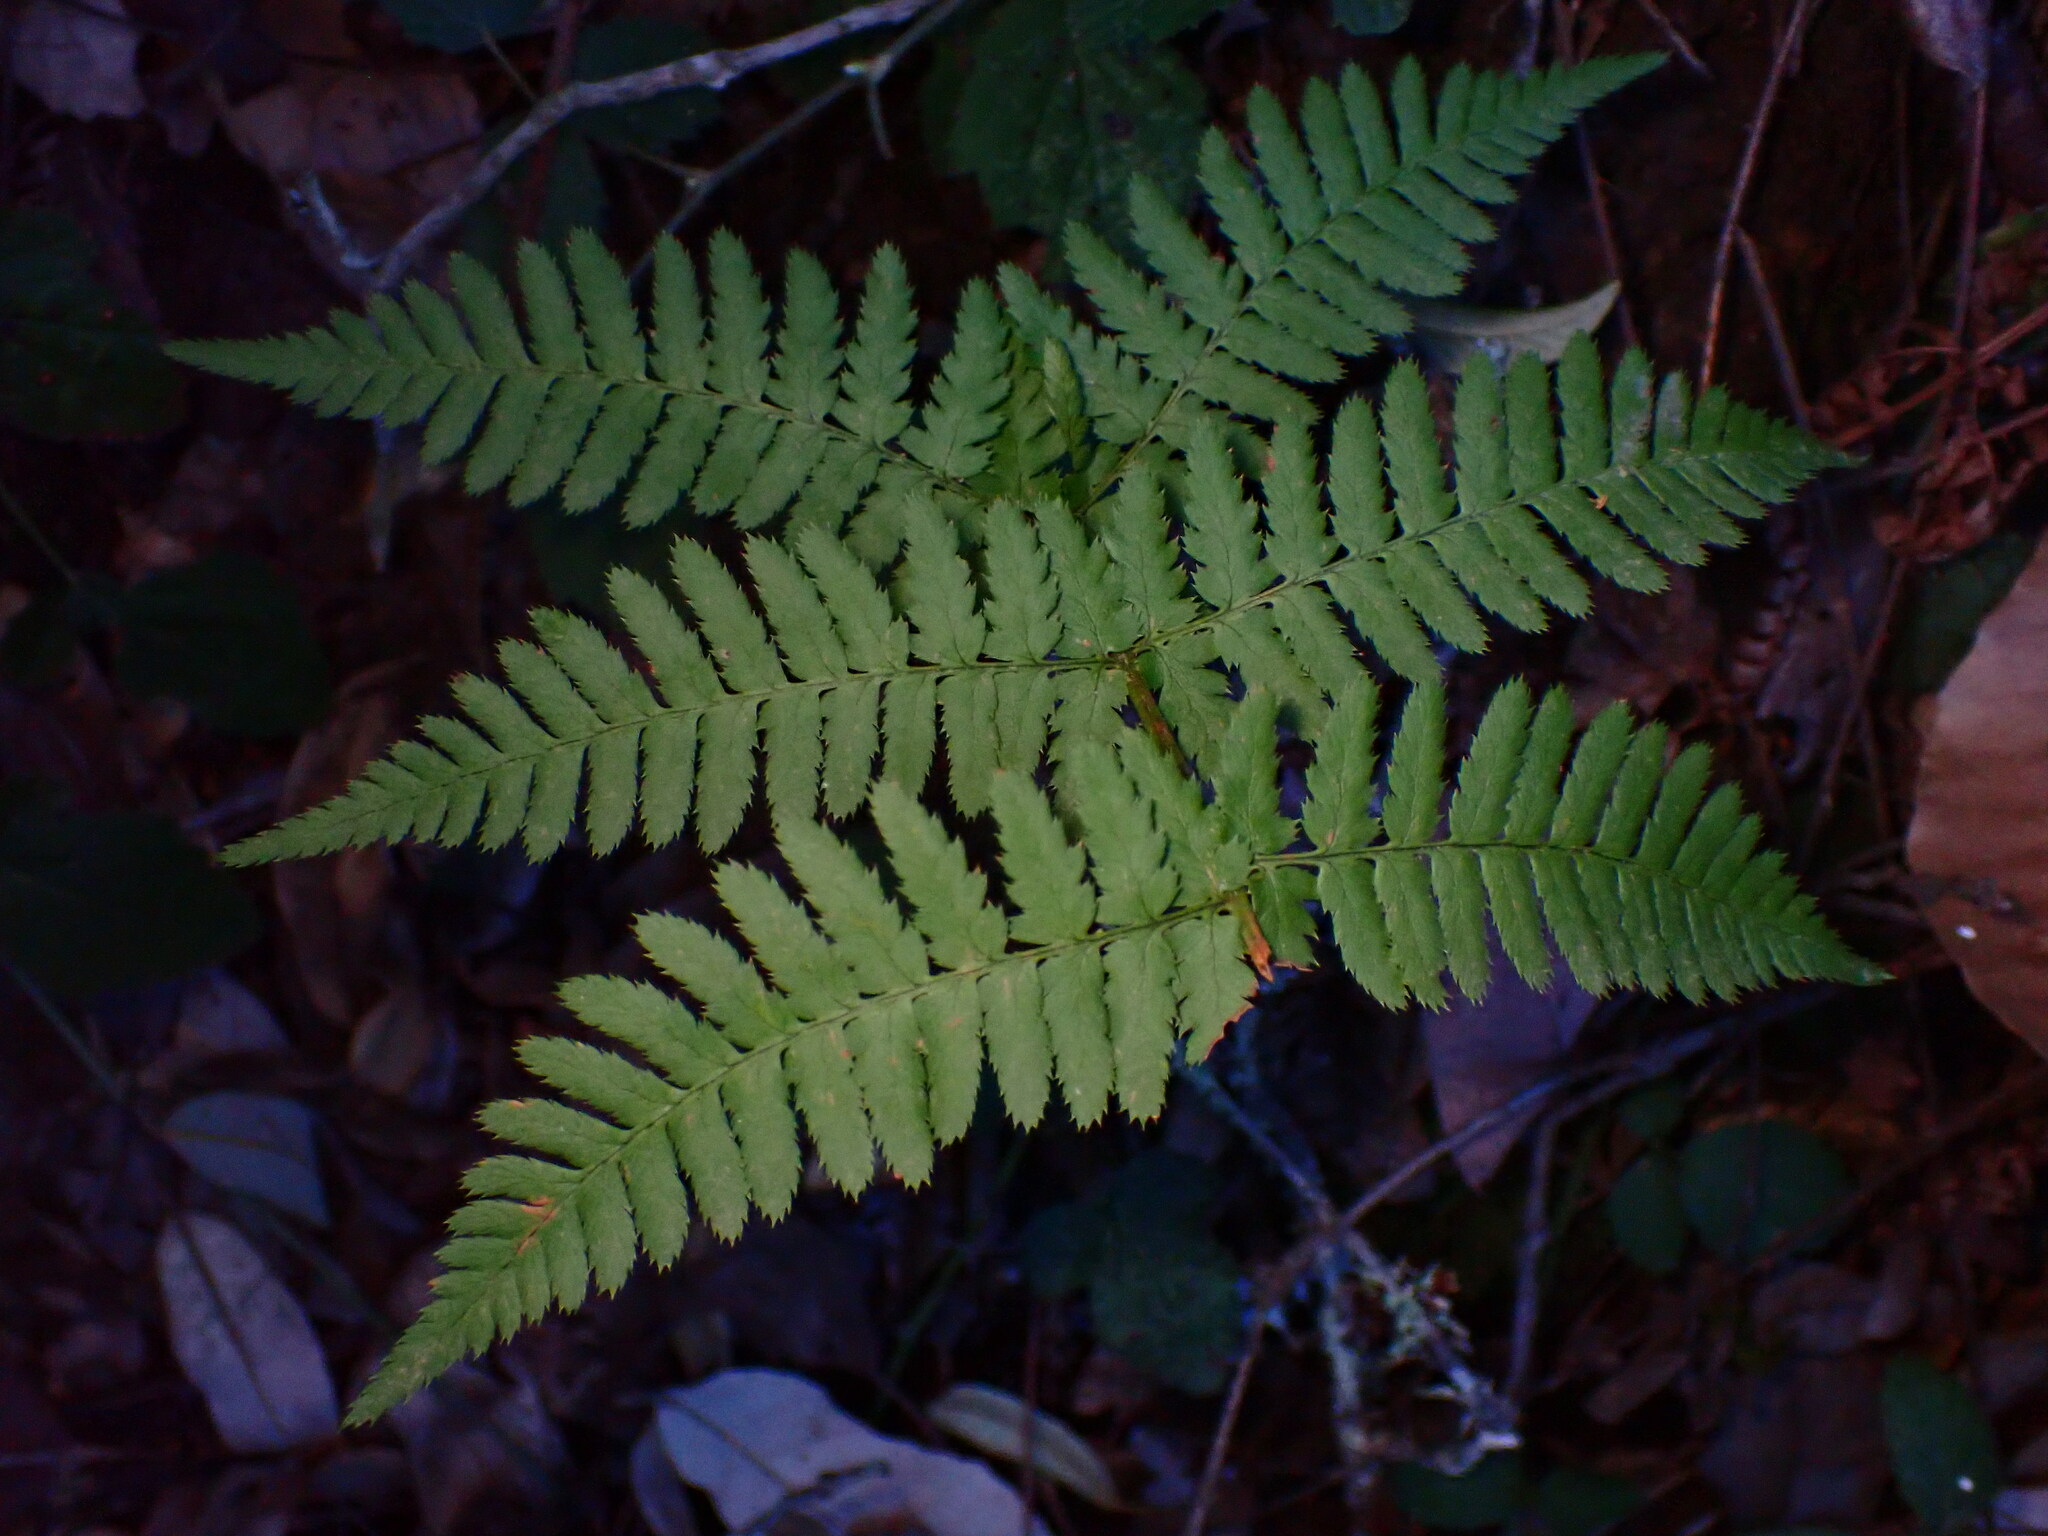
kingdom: Plantae
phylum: Tracheophyta
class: Polypodiopsida
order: Polypodiales
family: Dryopteridaceae
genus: Dryopteris
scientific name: Dryopteris arguta
